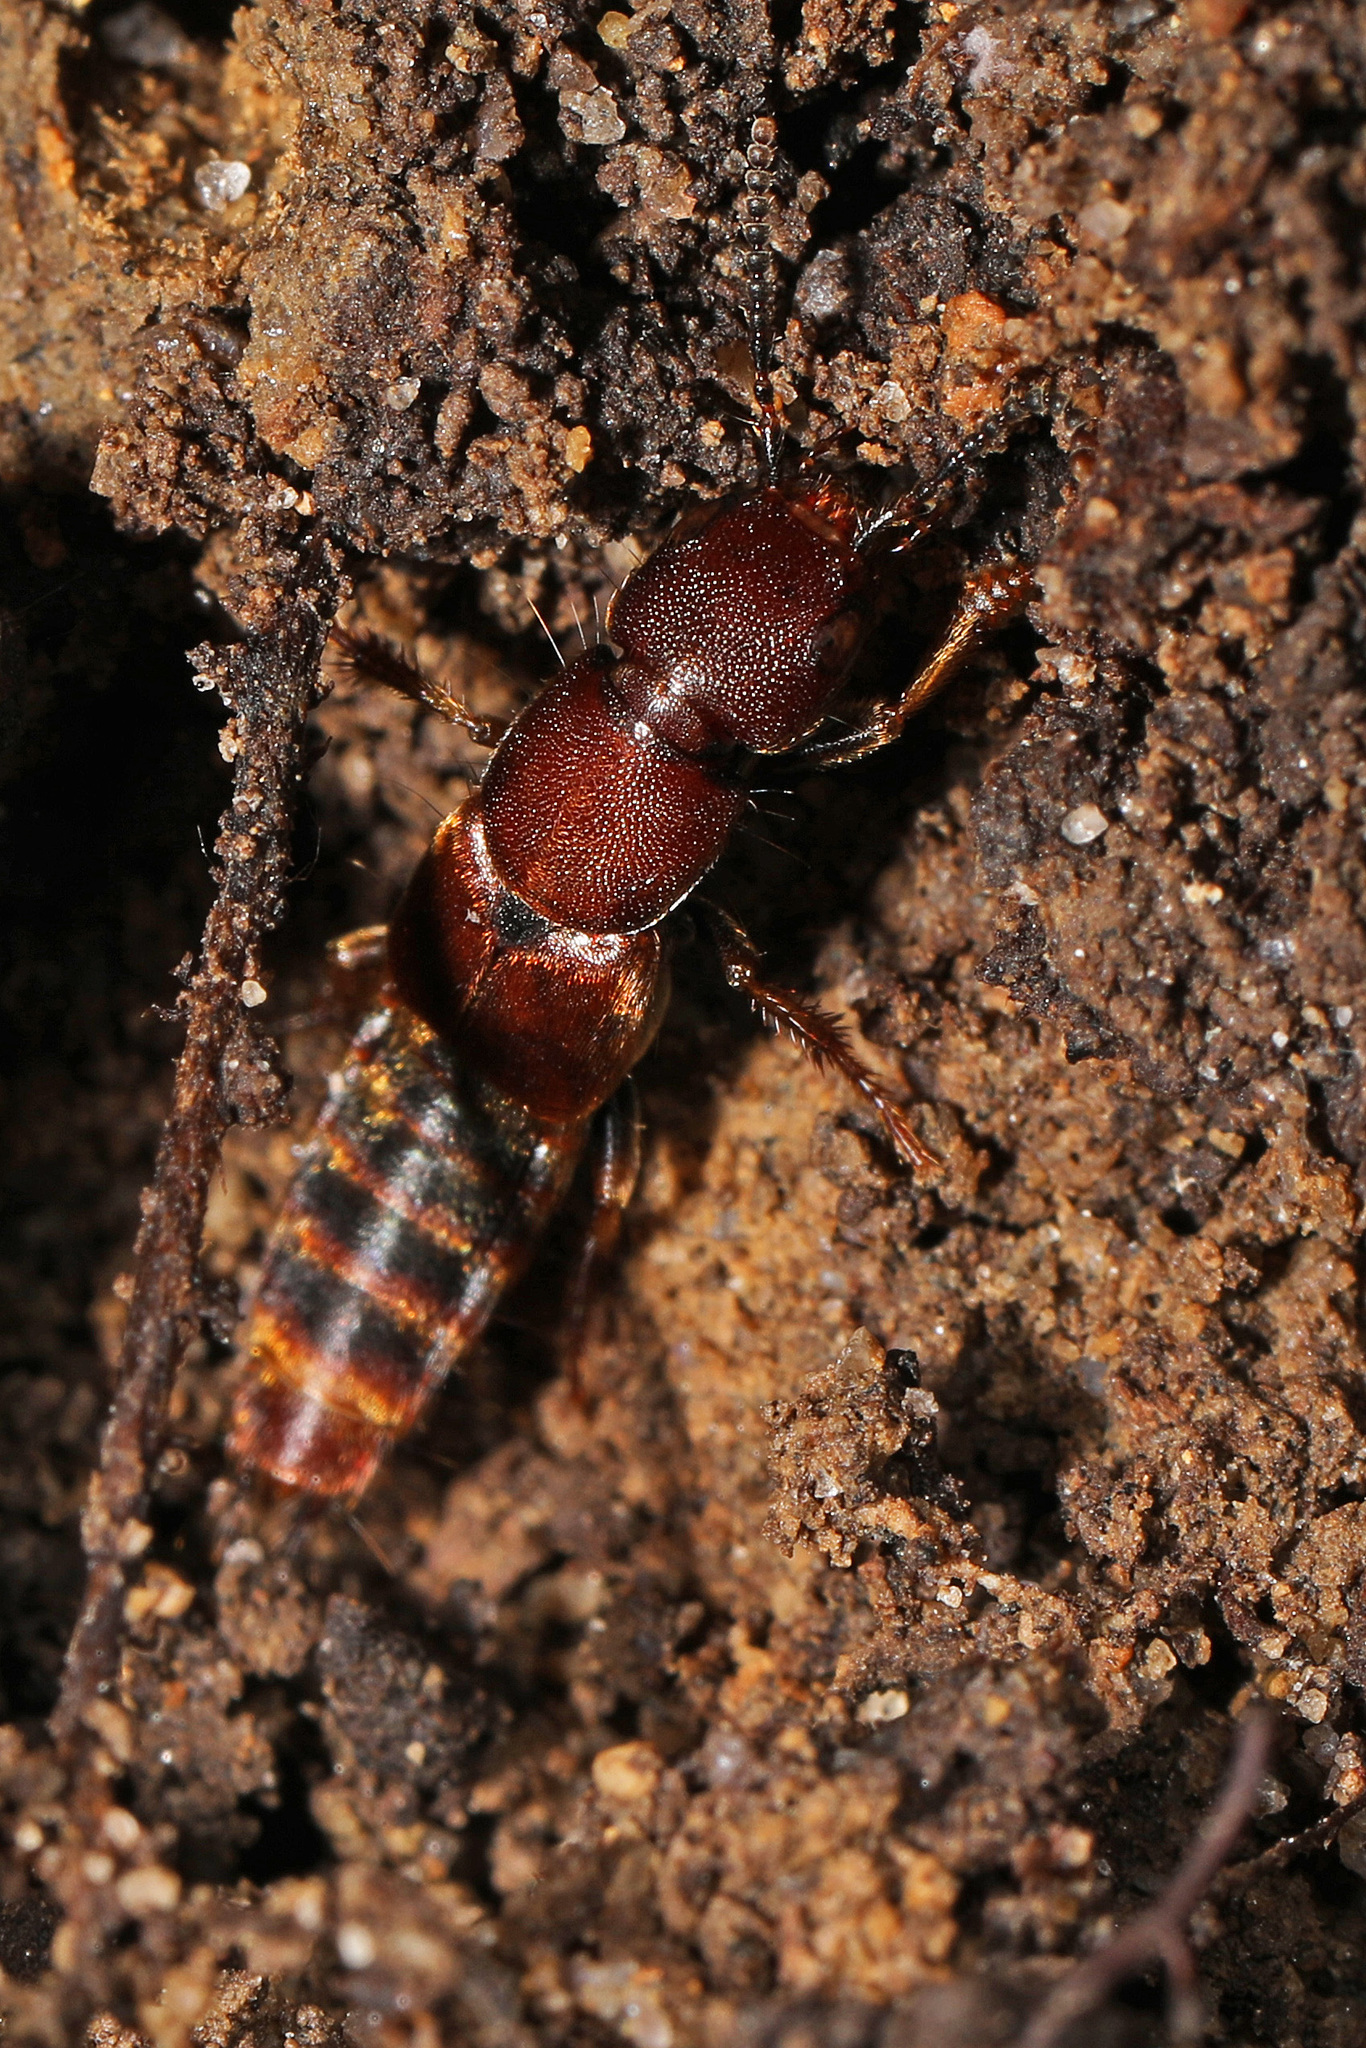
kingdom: Animalia
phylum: Arthropoda
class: Insecta
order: Coleoptera
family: Staphylinidae
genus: Platydracus
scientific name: Platydracus cinnamopterus
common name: Cinnamon rove beetle
